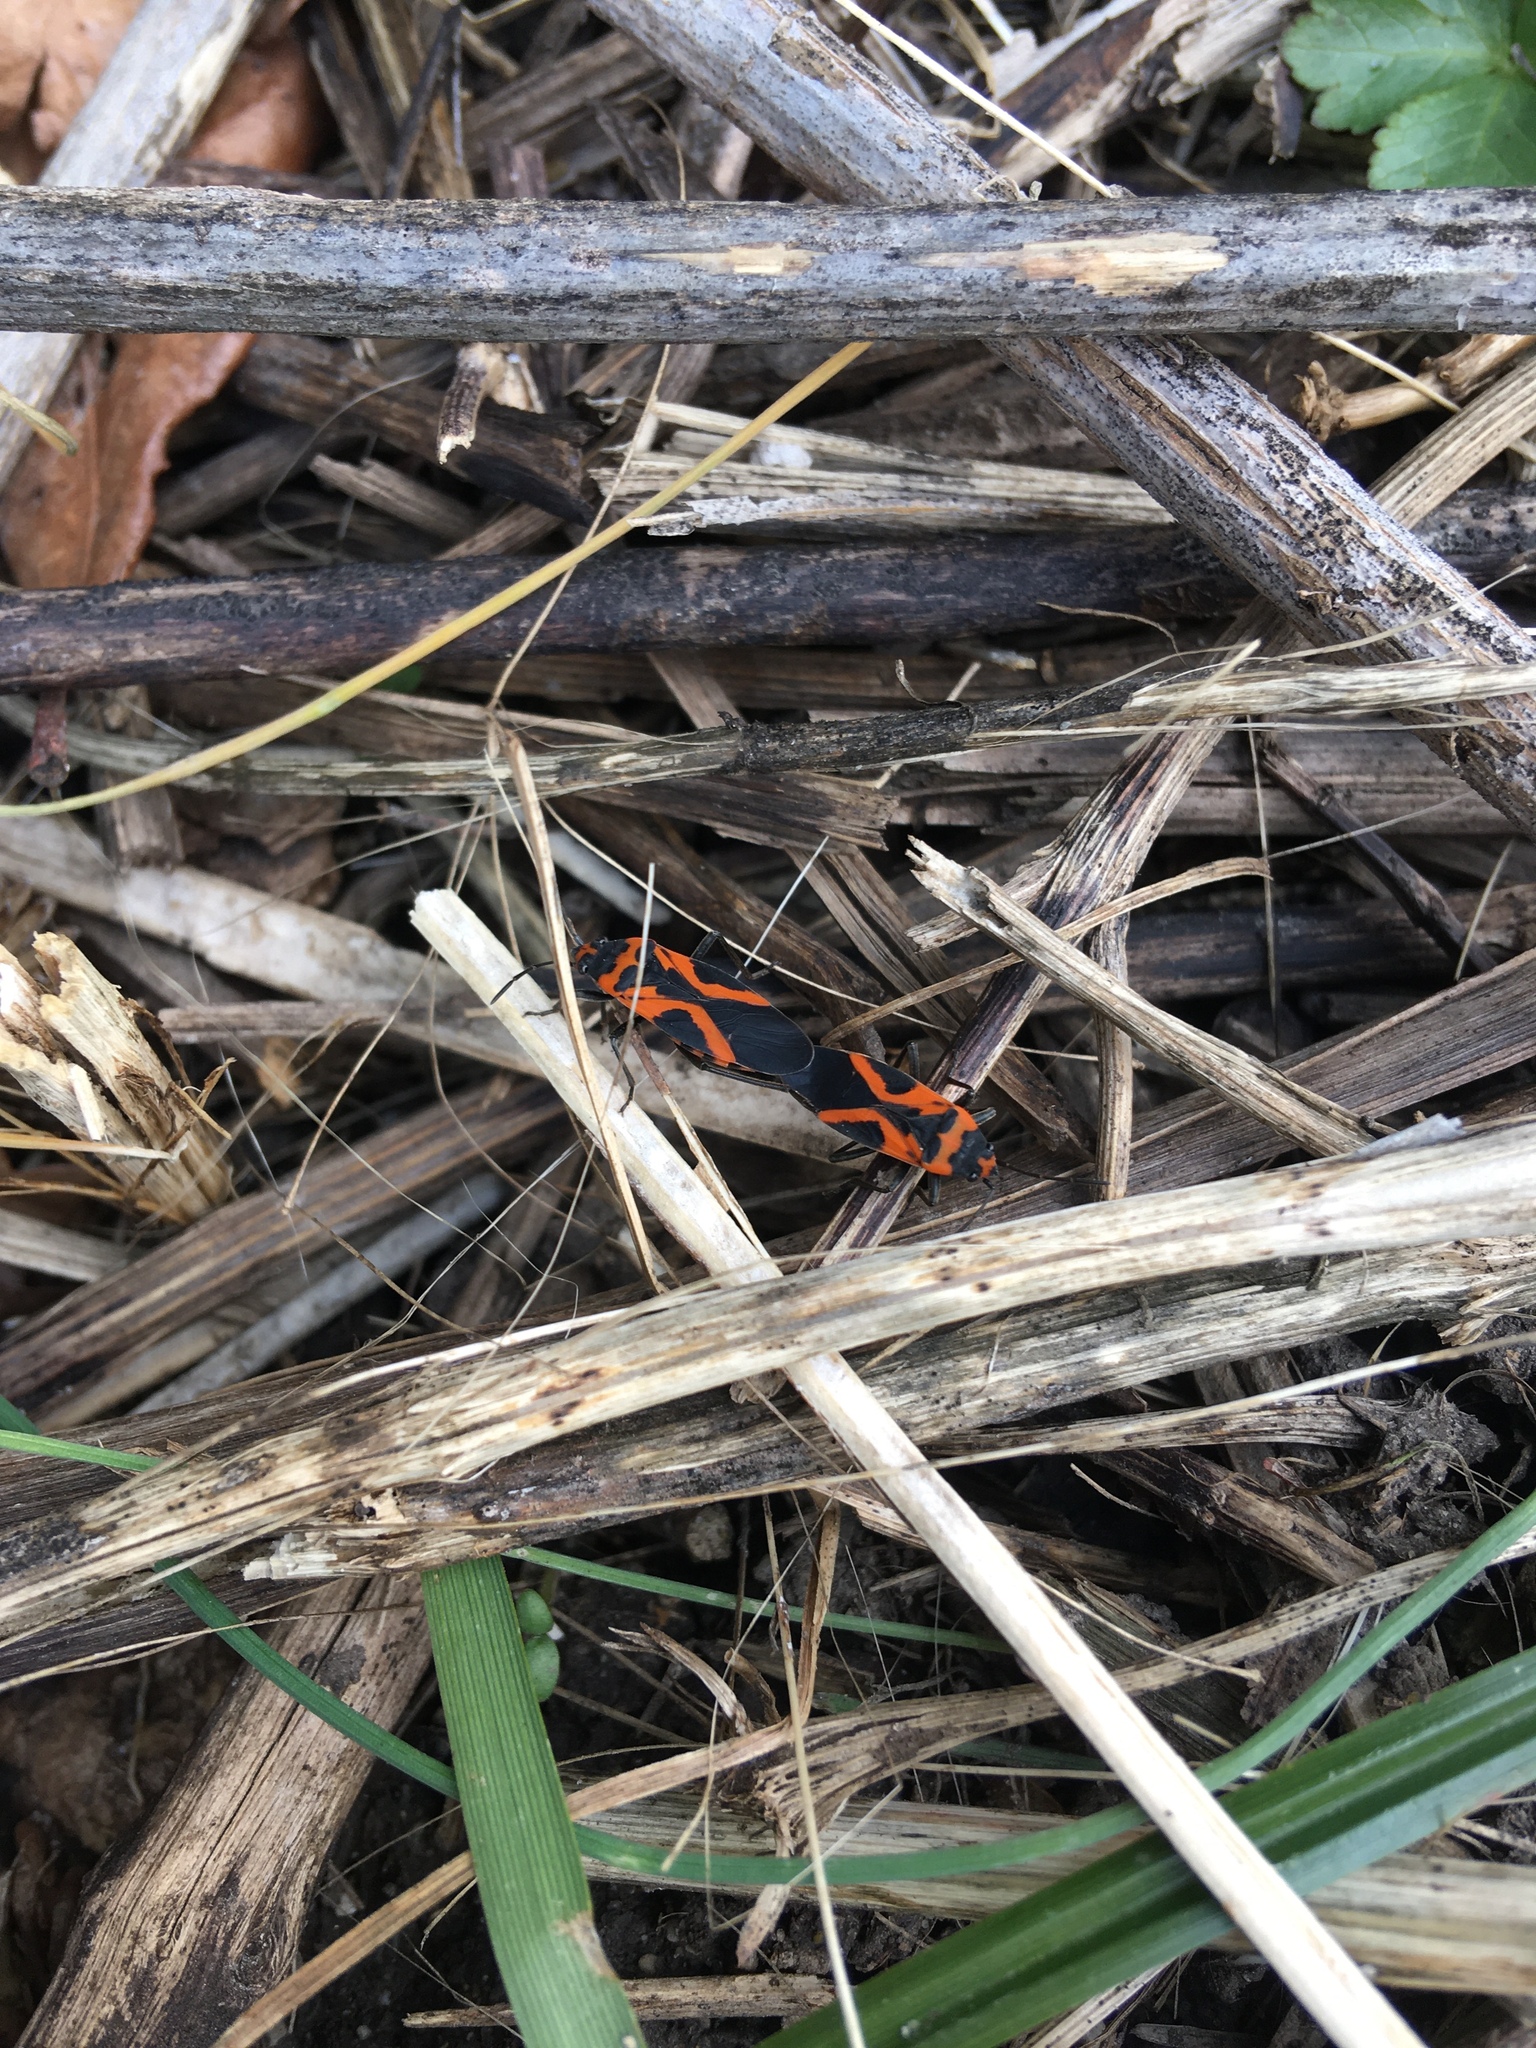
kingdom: Animalia
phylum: Arthropoda
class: Insecta
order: Hemiptera
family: Lygaeidae
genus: Lygaeus
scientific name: Lygaeus turcicus
